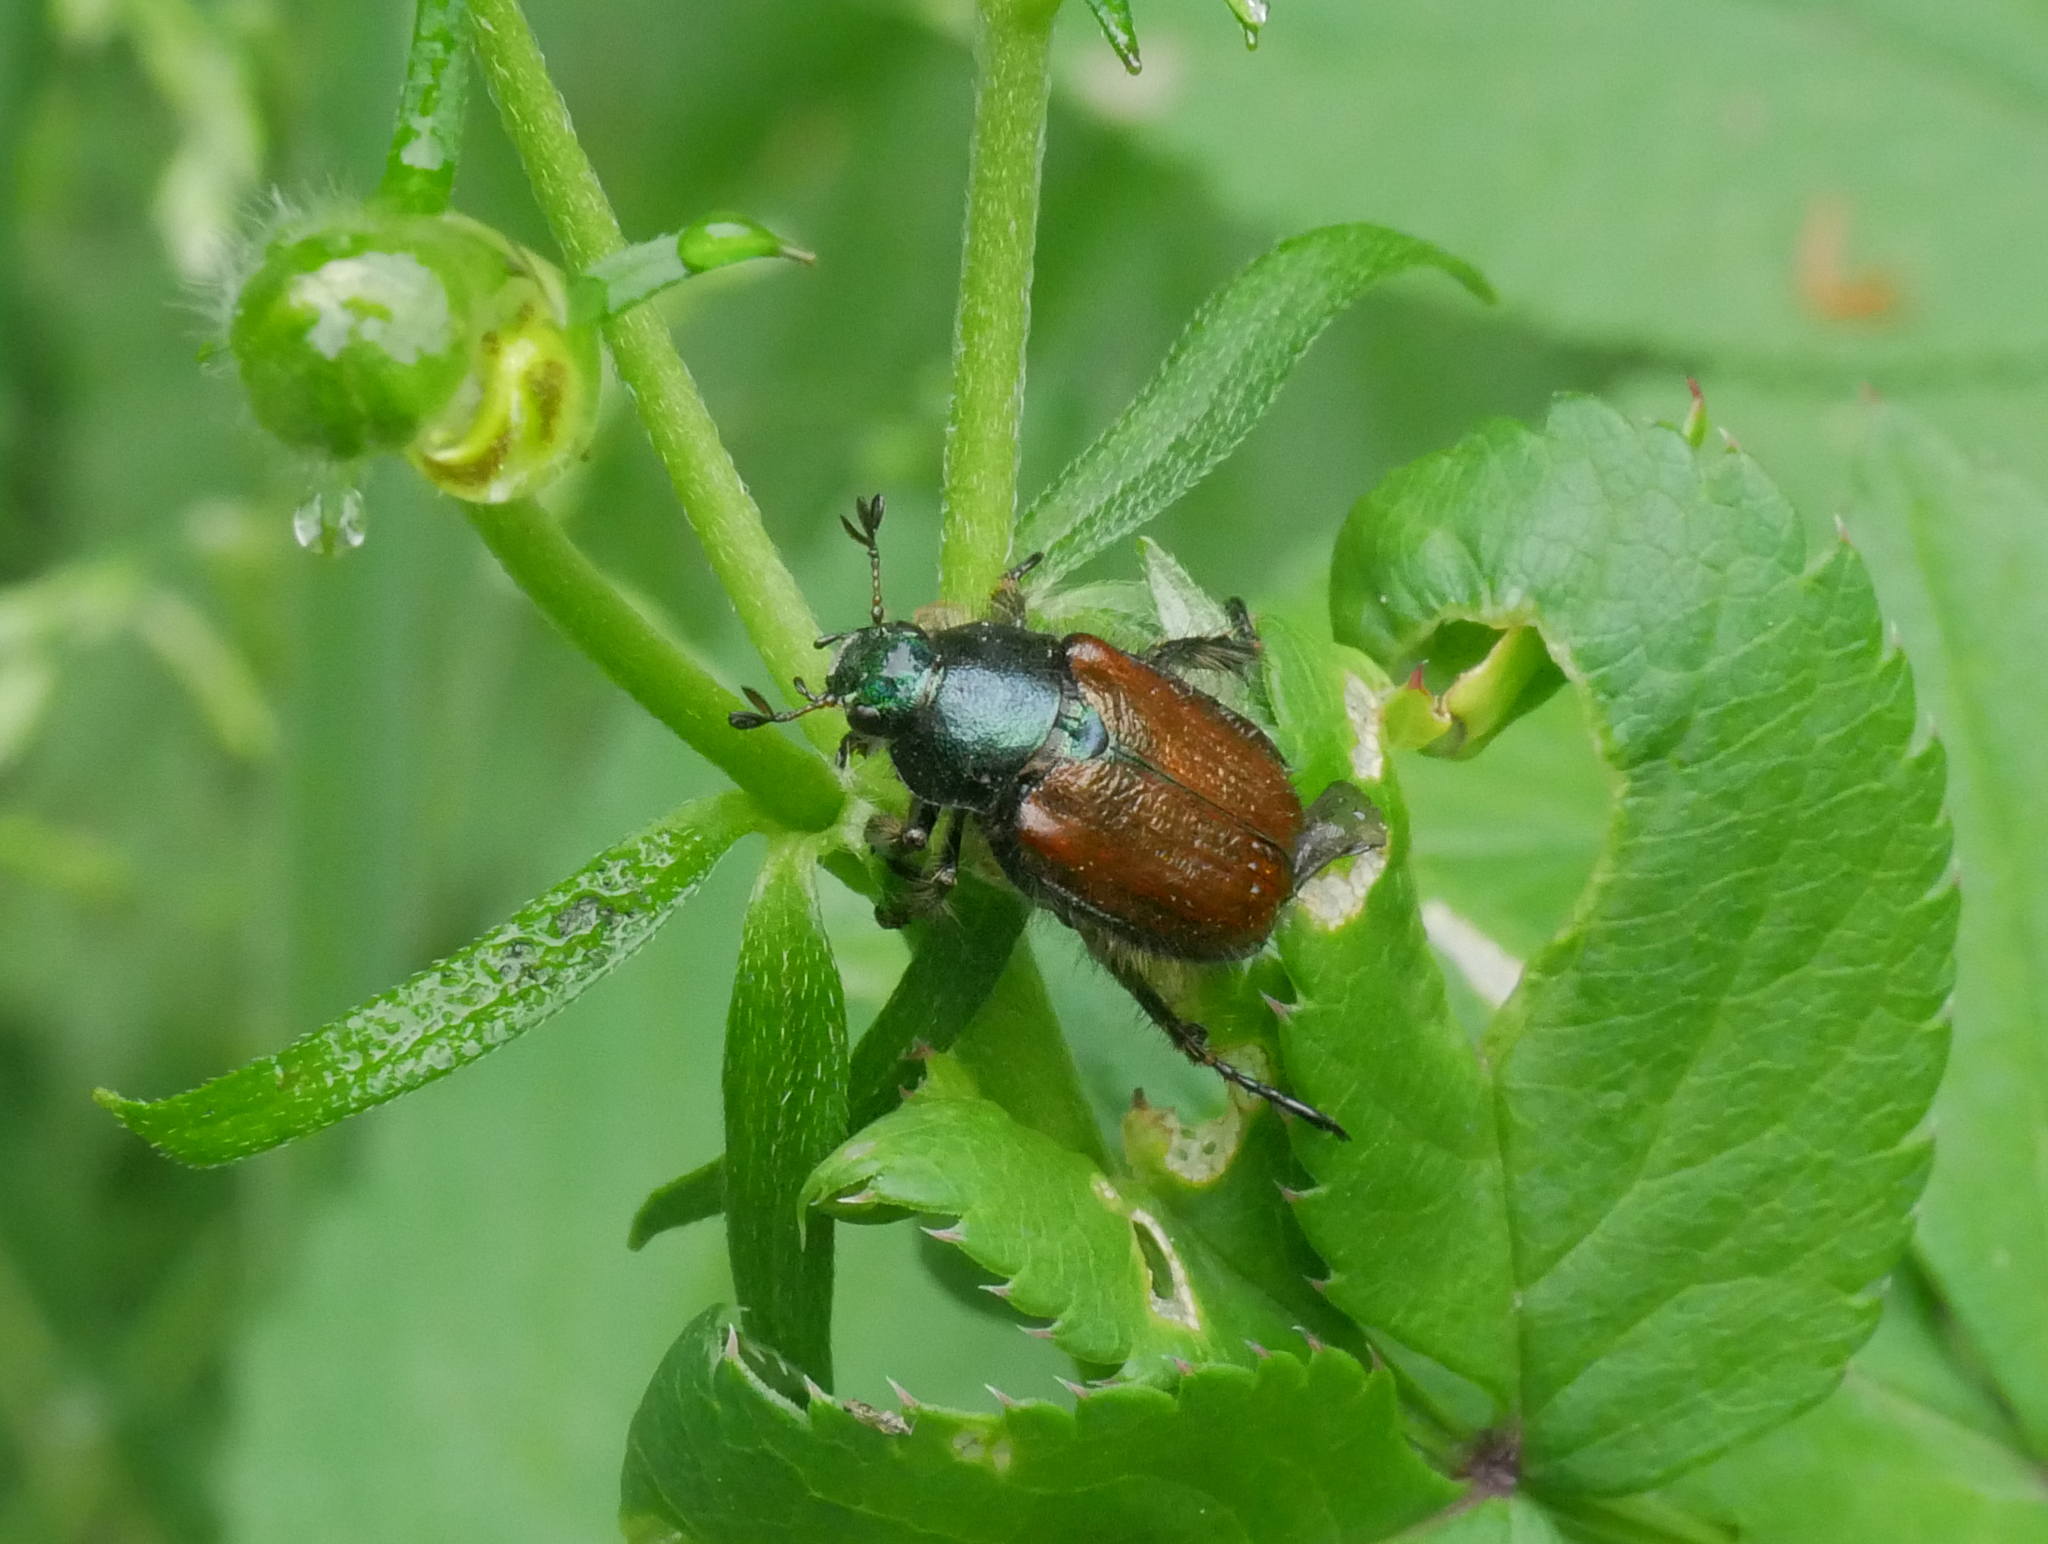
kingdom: Animalia
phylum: Arthropoda
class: Insecta
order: Coleoptera
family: Scarabaeidae
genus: Phyllopertha
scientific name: Phyllopertha horticola
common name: Garden chafer
